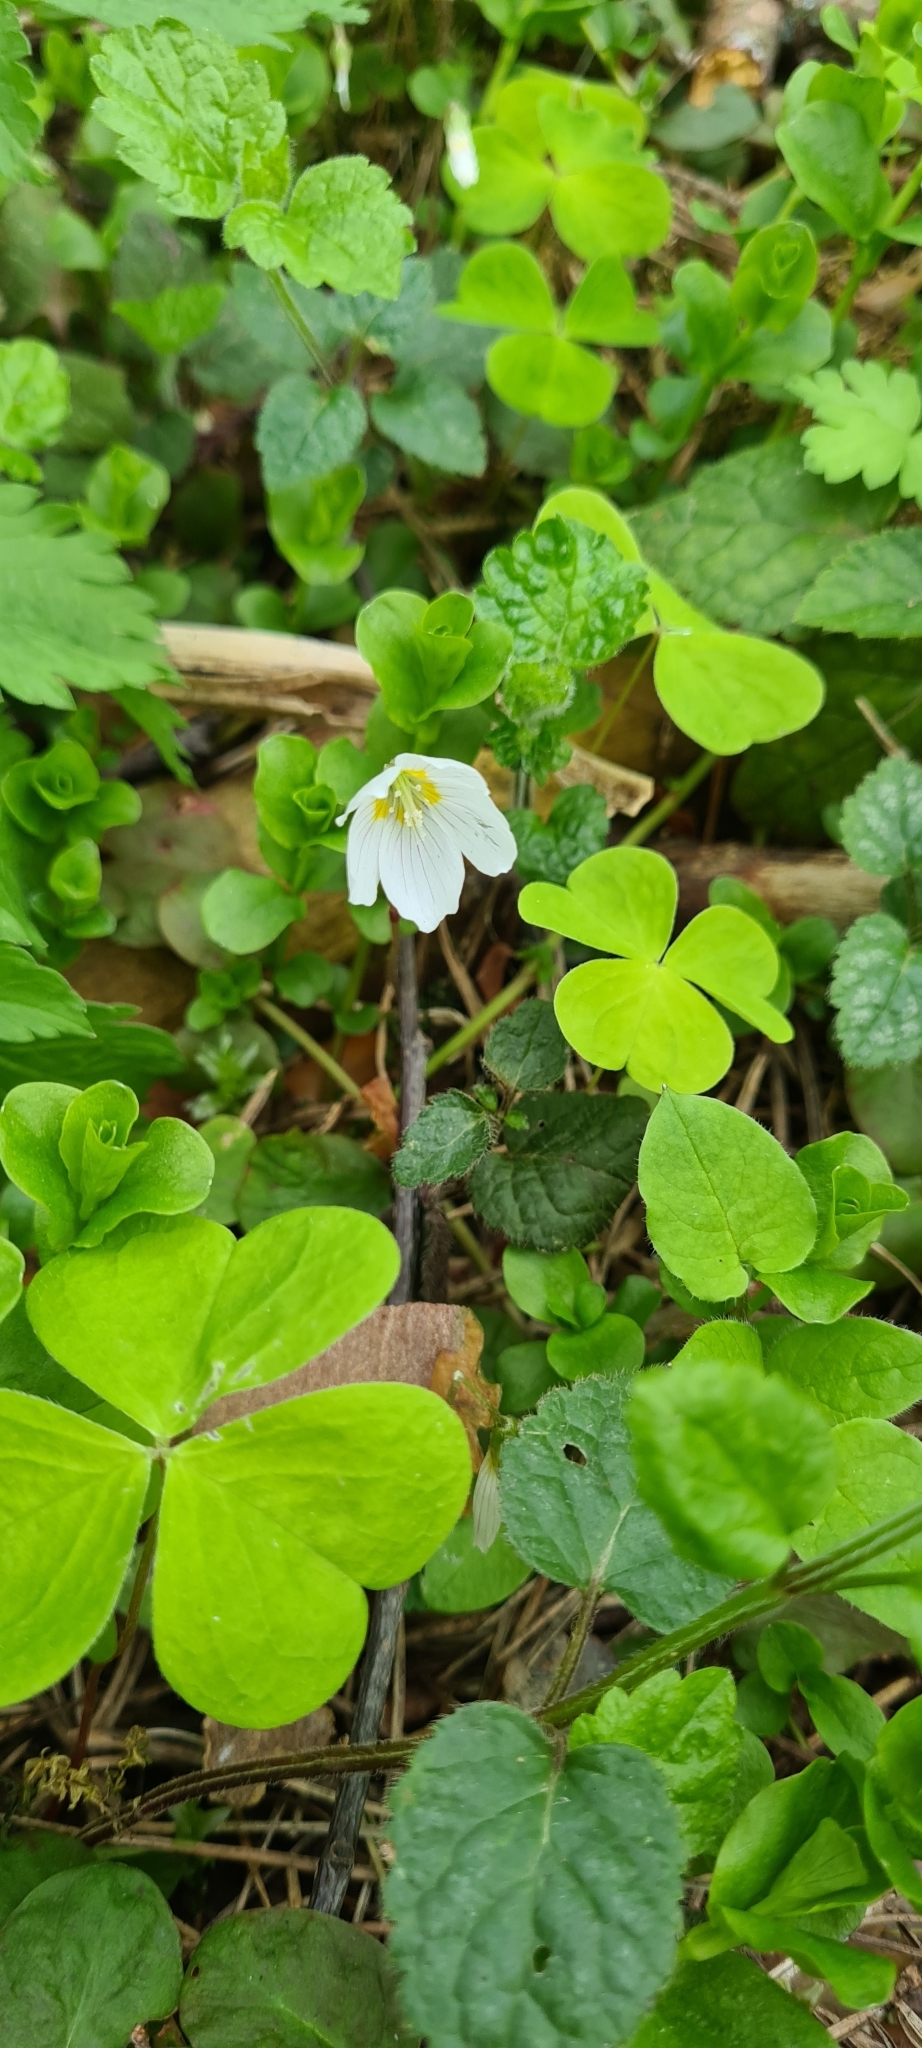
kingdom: Plantae
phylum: Tracheophyta
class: Magnoliopsida
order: Oxalidales
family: Oxalidaceae
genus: Oxalis
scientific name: Oxalis acetosella
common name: Wood-sorrel
